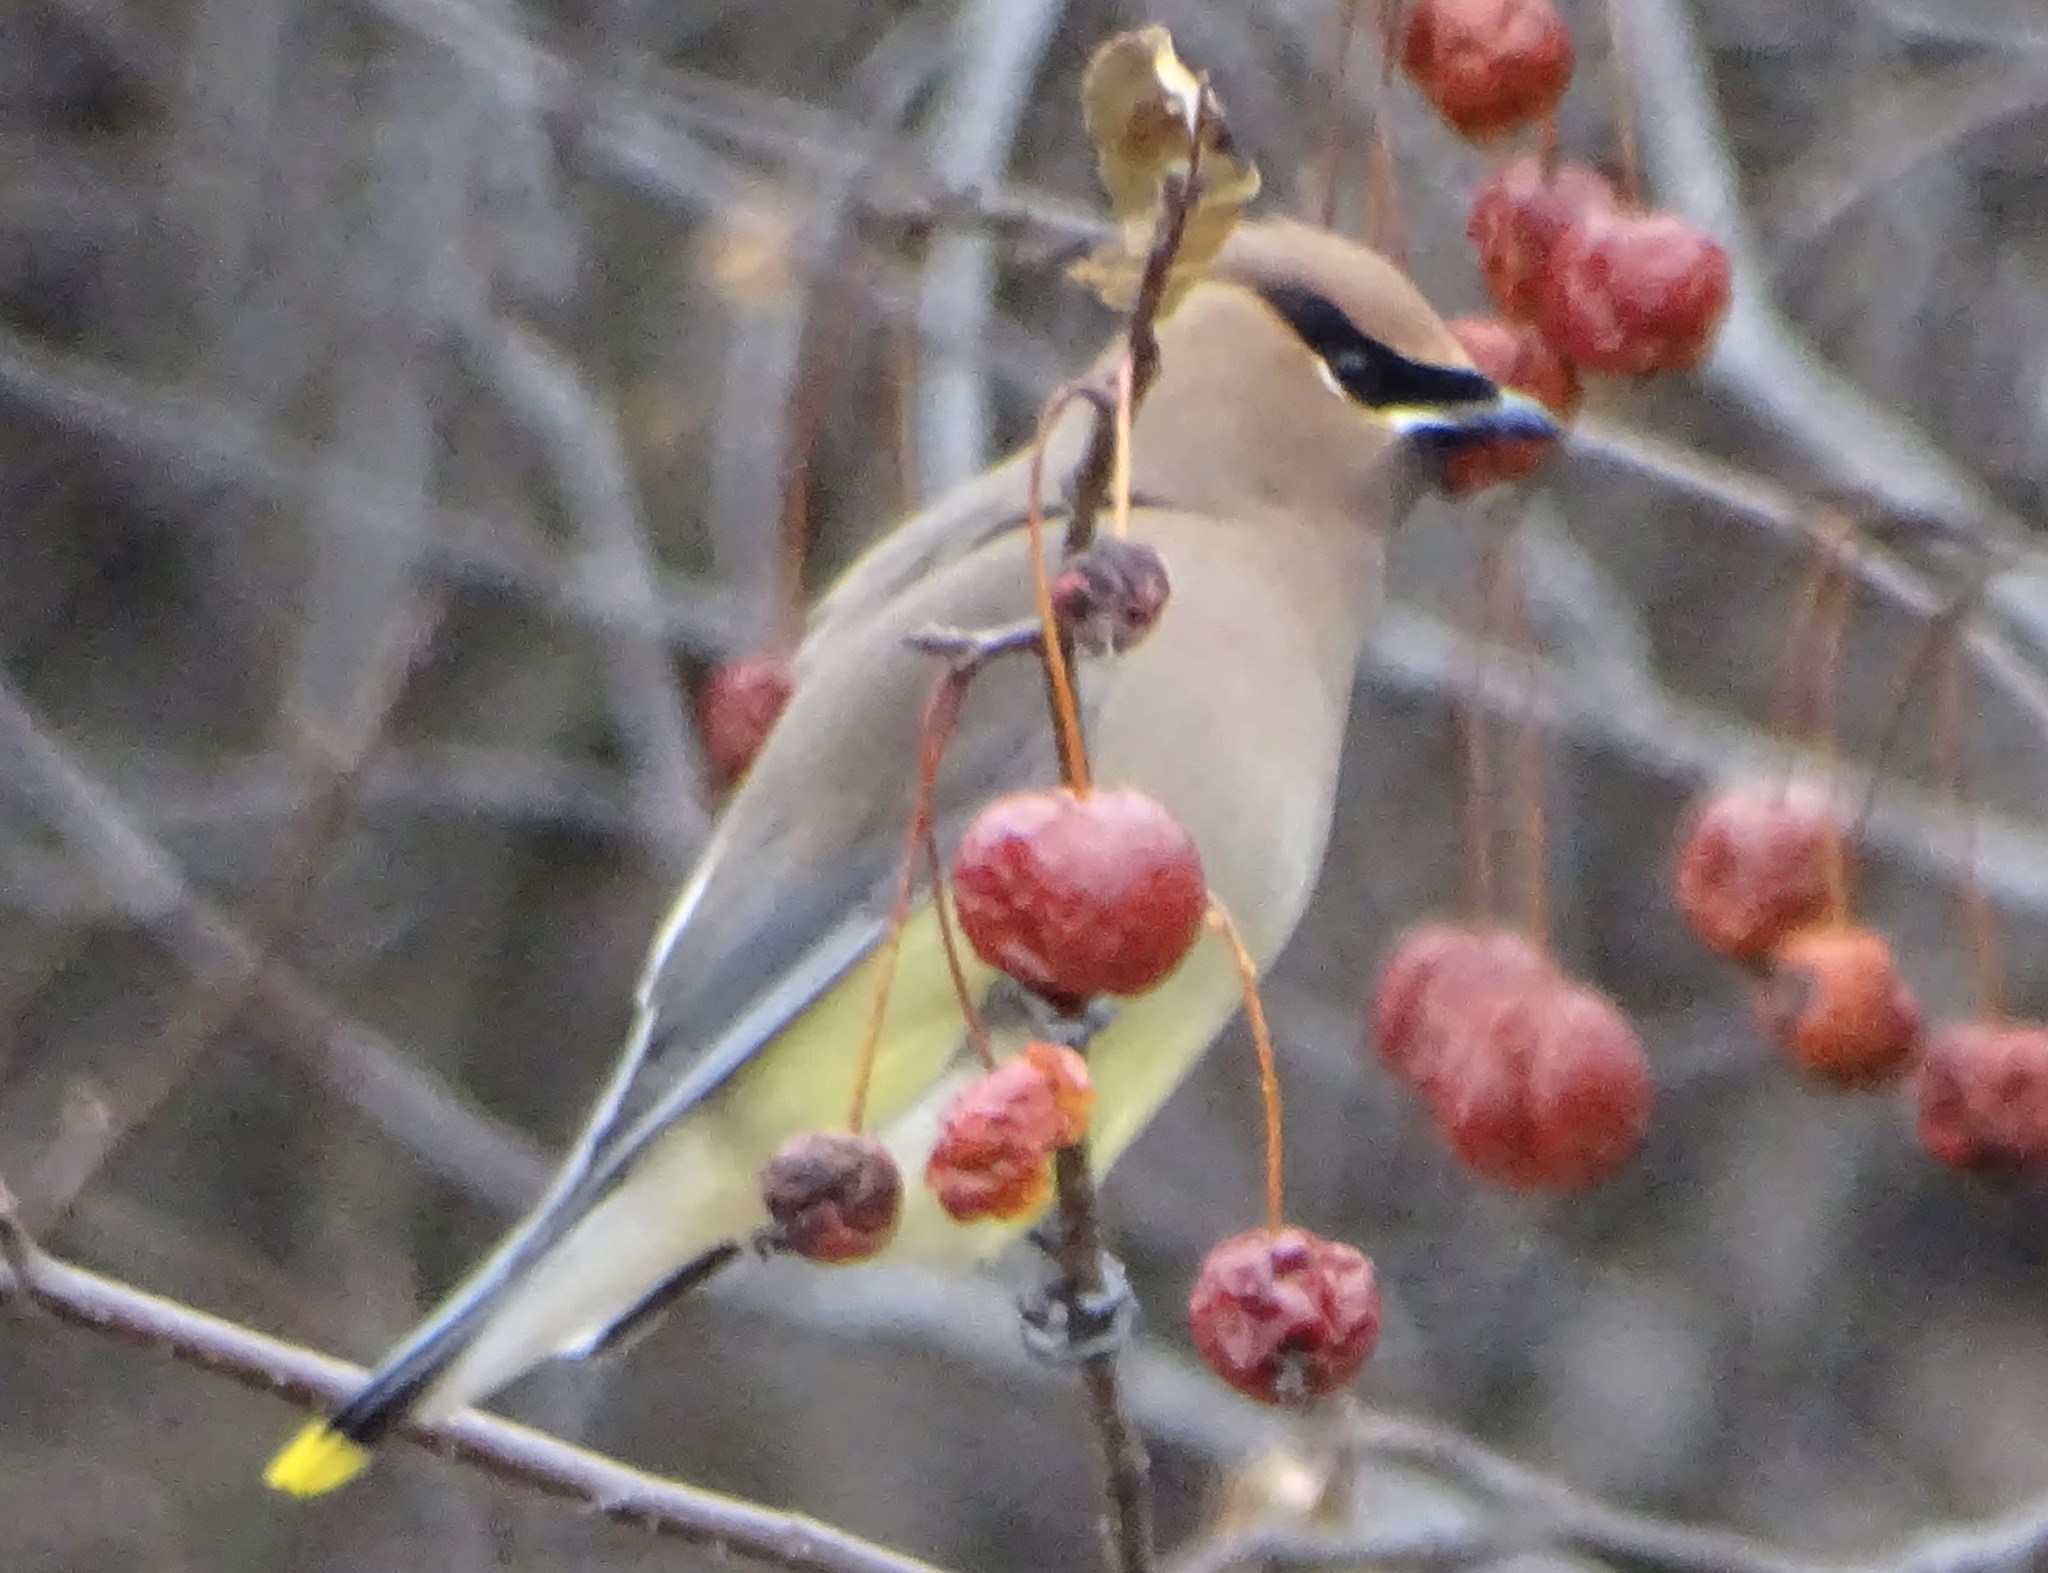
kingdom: Animalia
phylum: Chordata
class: Aves
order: Passeriformes
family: Bombycillidae
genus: Bombycilla
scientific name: Bombycilla cedrorum
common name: Cedar waxwing
